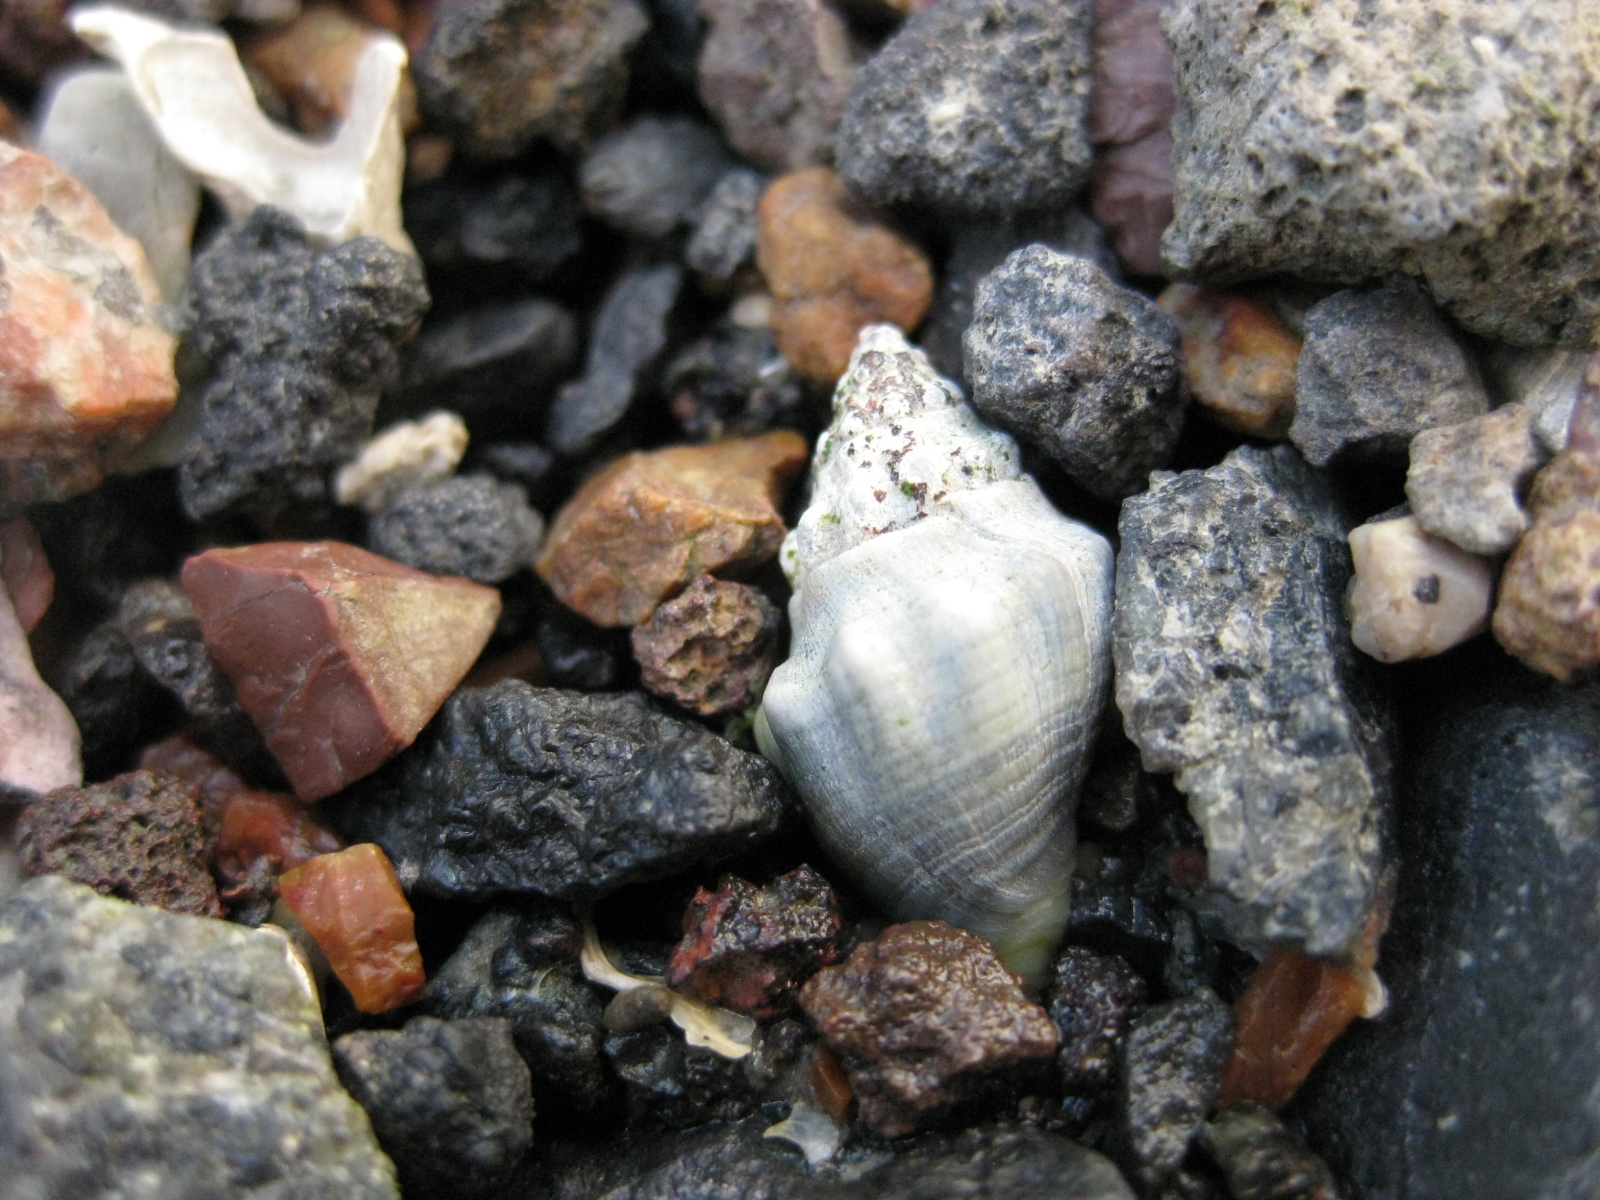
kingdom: Animalia
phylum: Mollusca
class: Gastropoda
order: Neogastropoda
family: Cominellidae
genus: Cominella
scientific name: Cominella glandiformis
